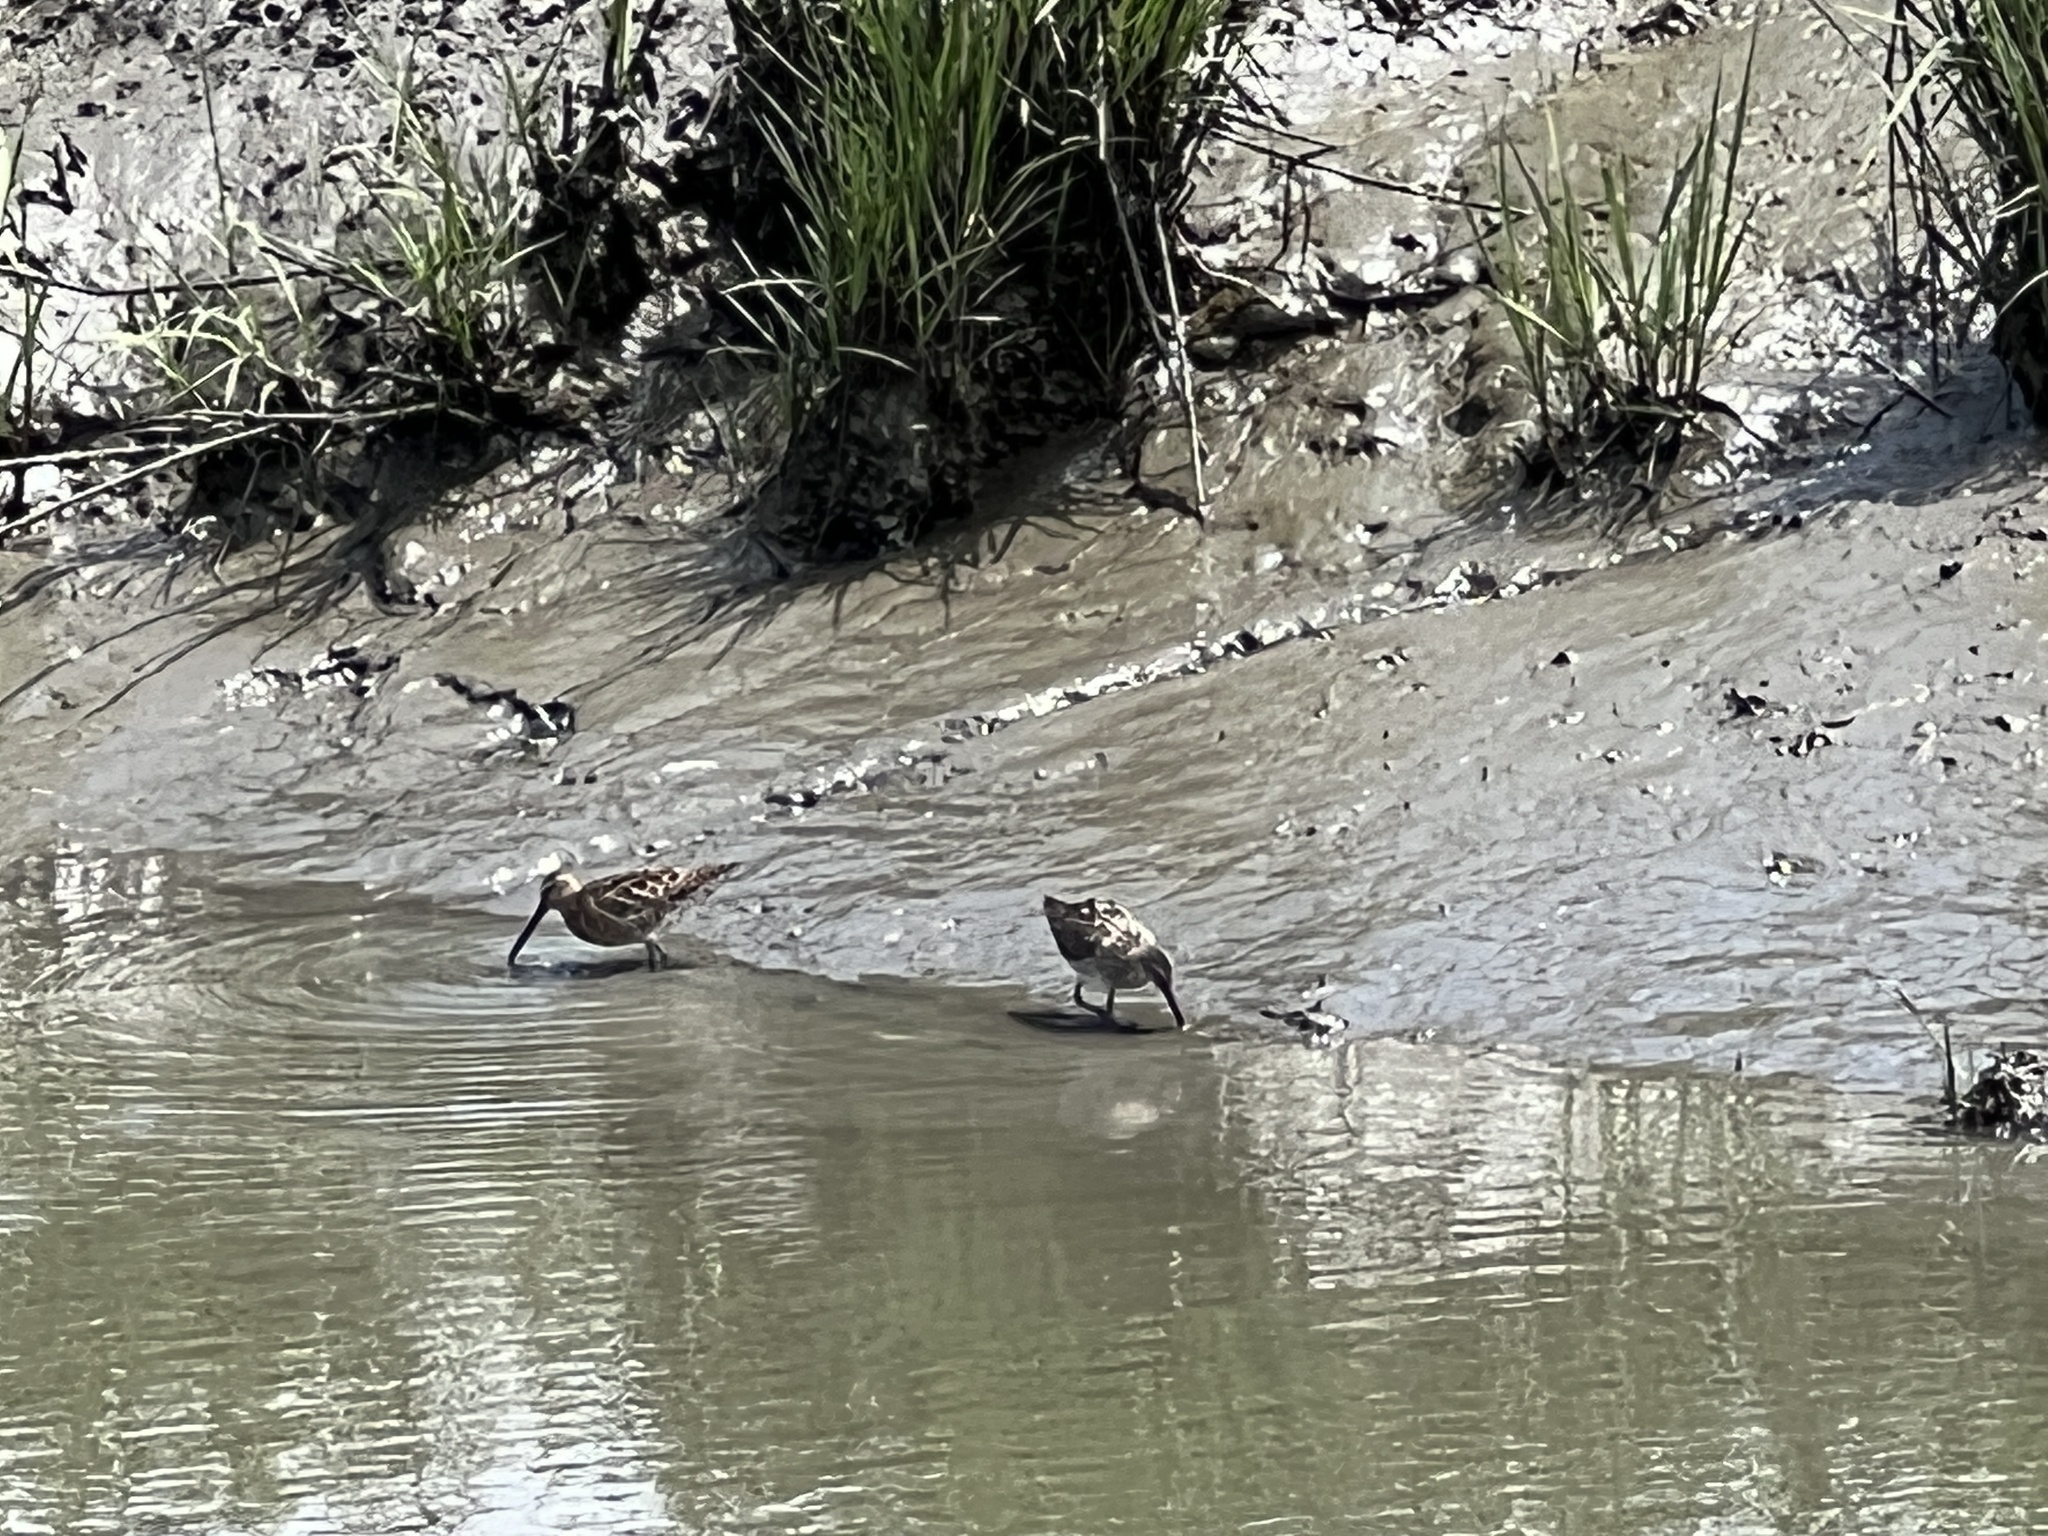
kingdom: Animalia
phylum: Chordata
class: Aves
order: Charadriiformes
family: Scolopacidae
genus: Limnodromus
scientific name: Limnodromus
